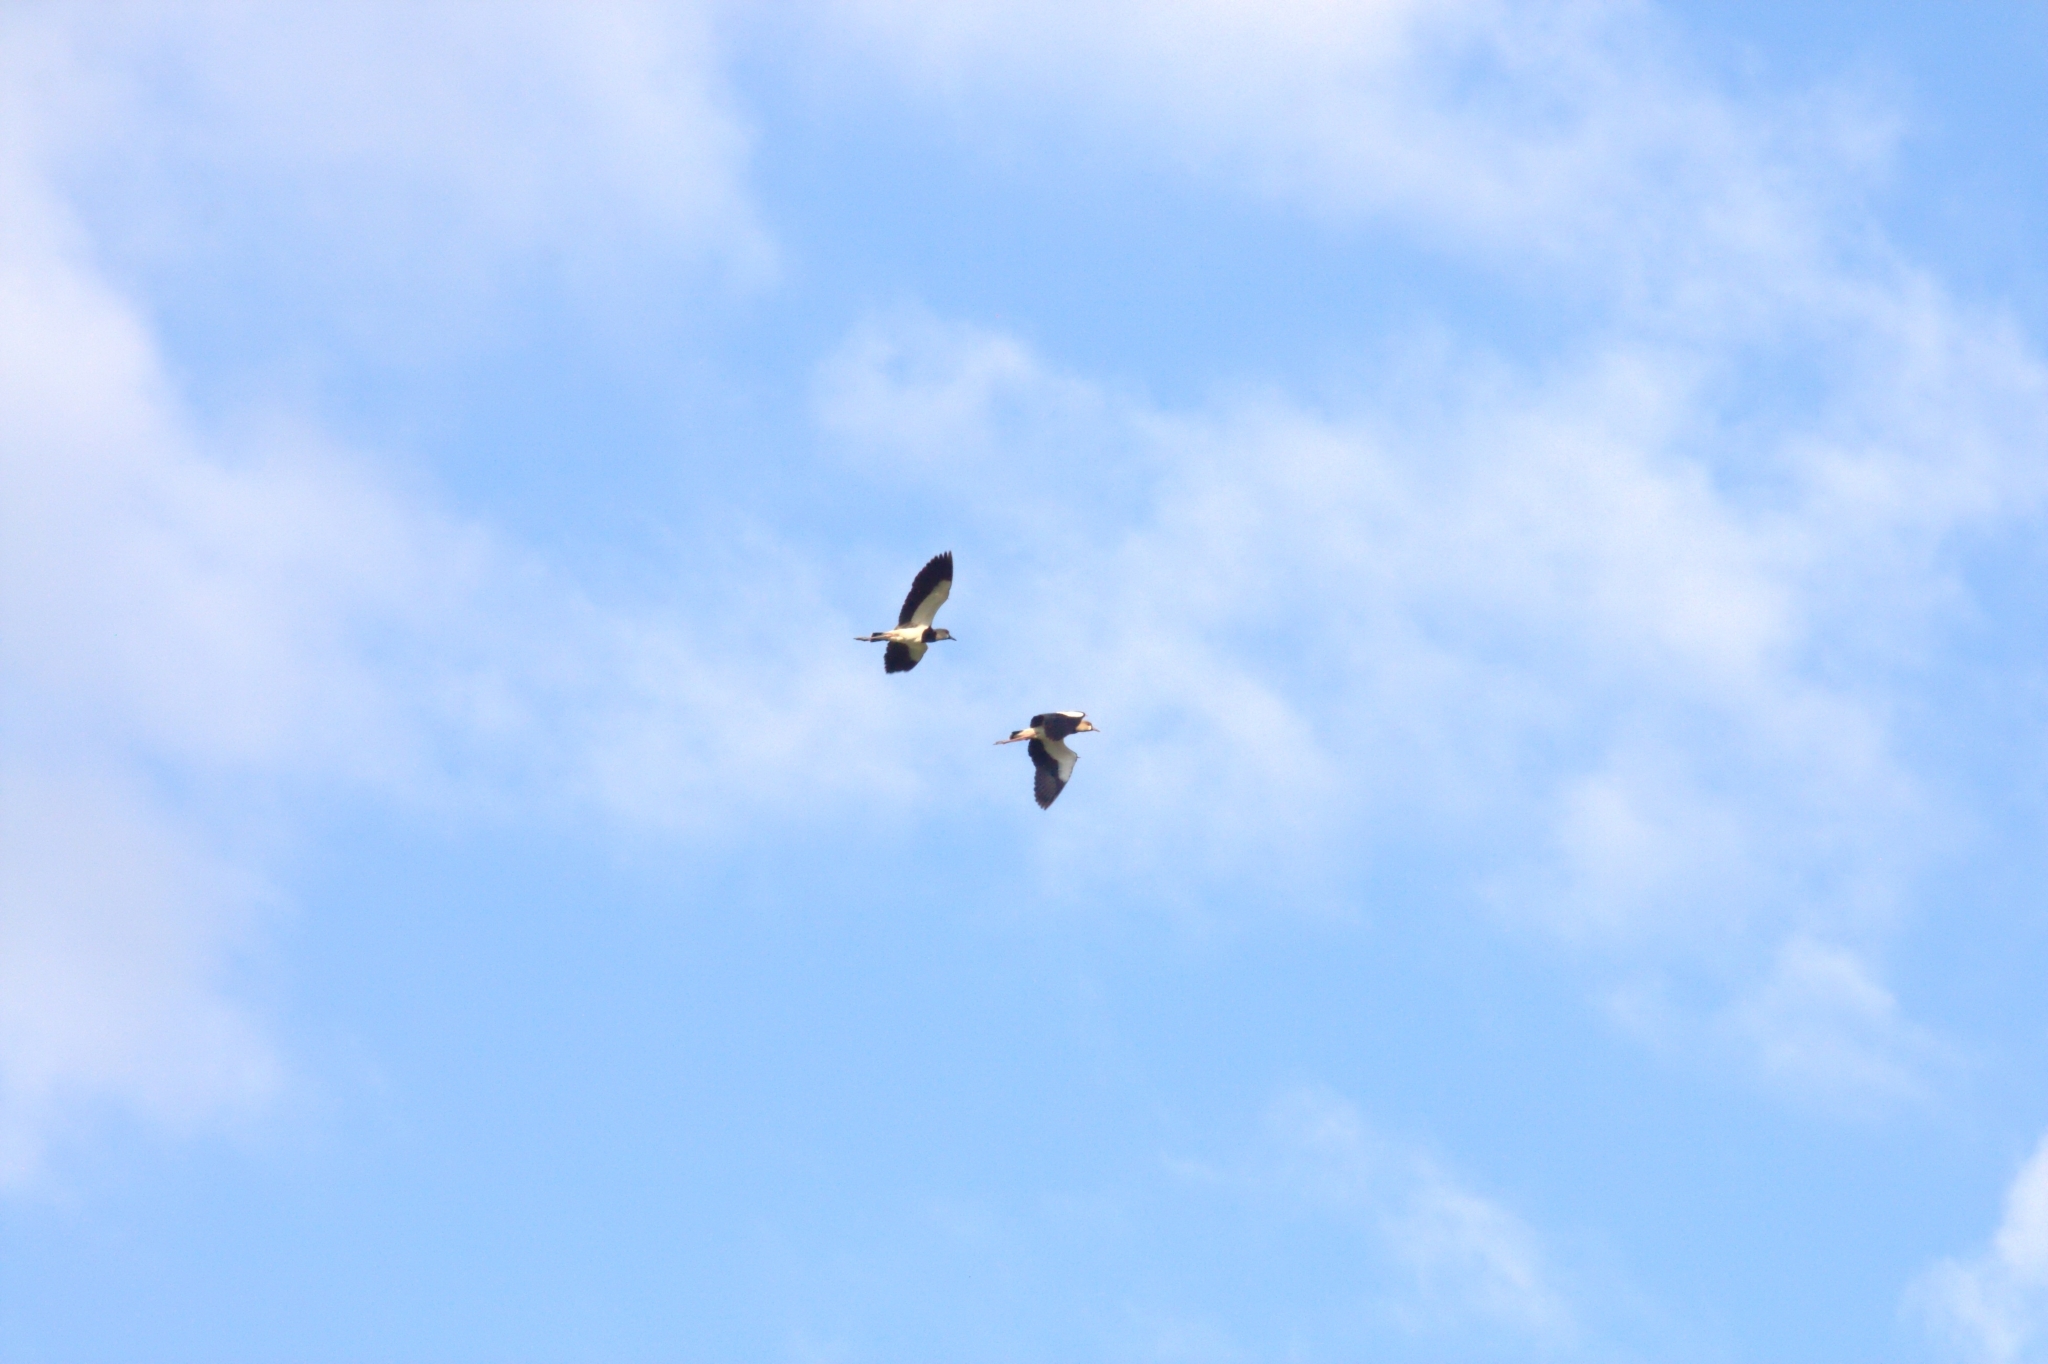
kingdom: Animalia
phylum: Chordata
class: Aves
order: Charadriiformes
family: Charadriidae
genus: Vanellus
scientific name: Vanellus chilensis
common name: Southern lapwing
